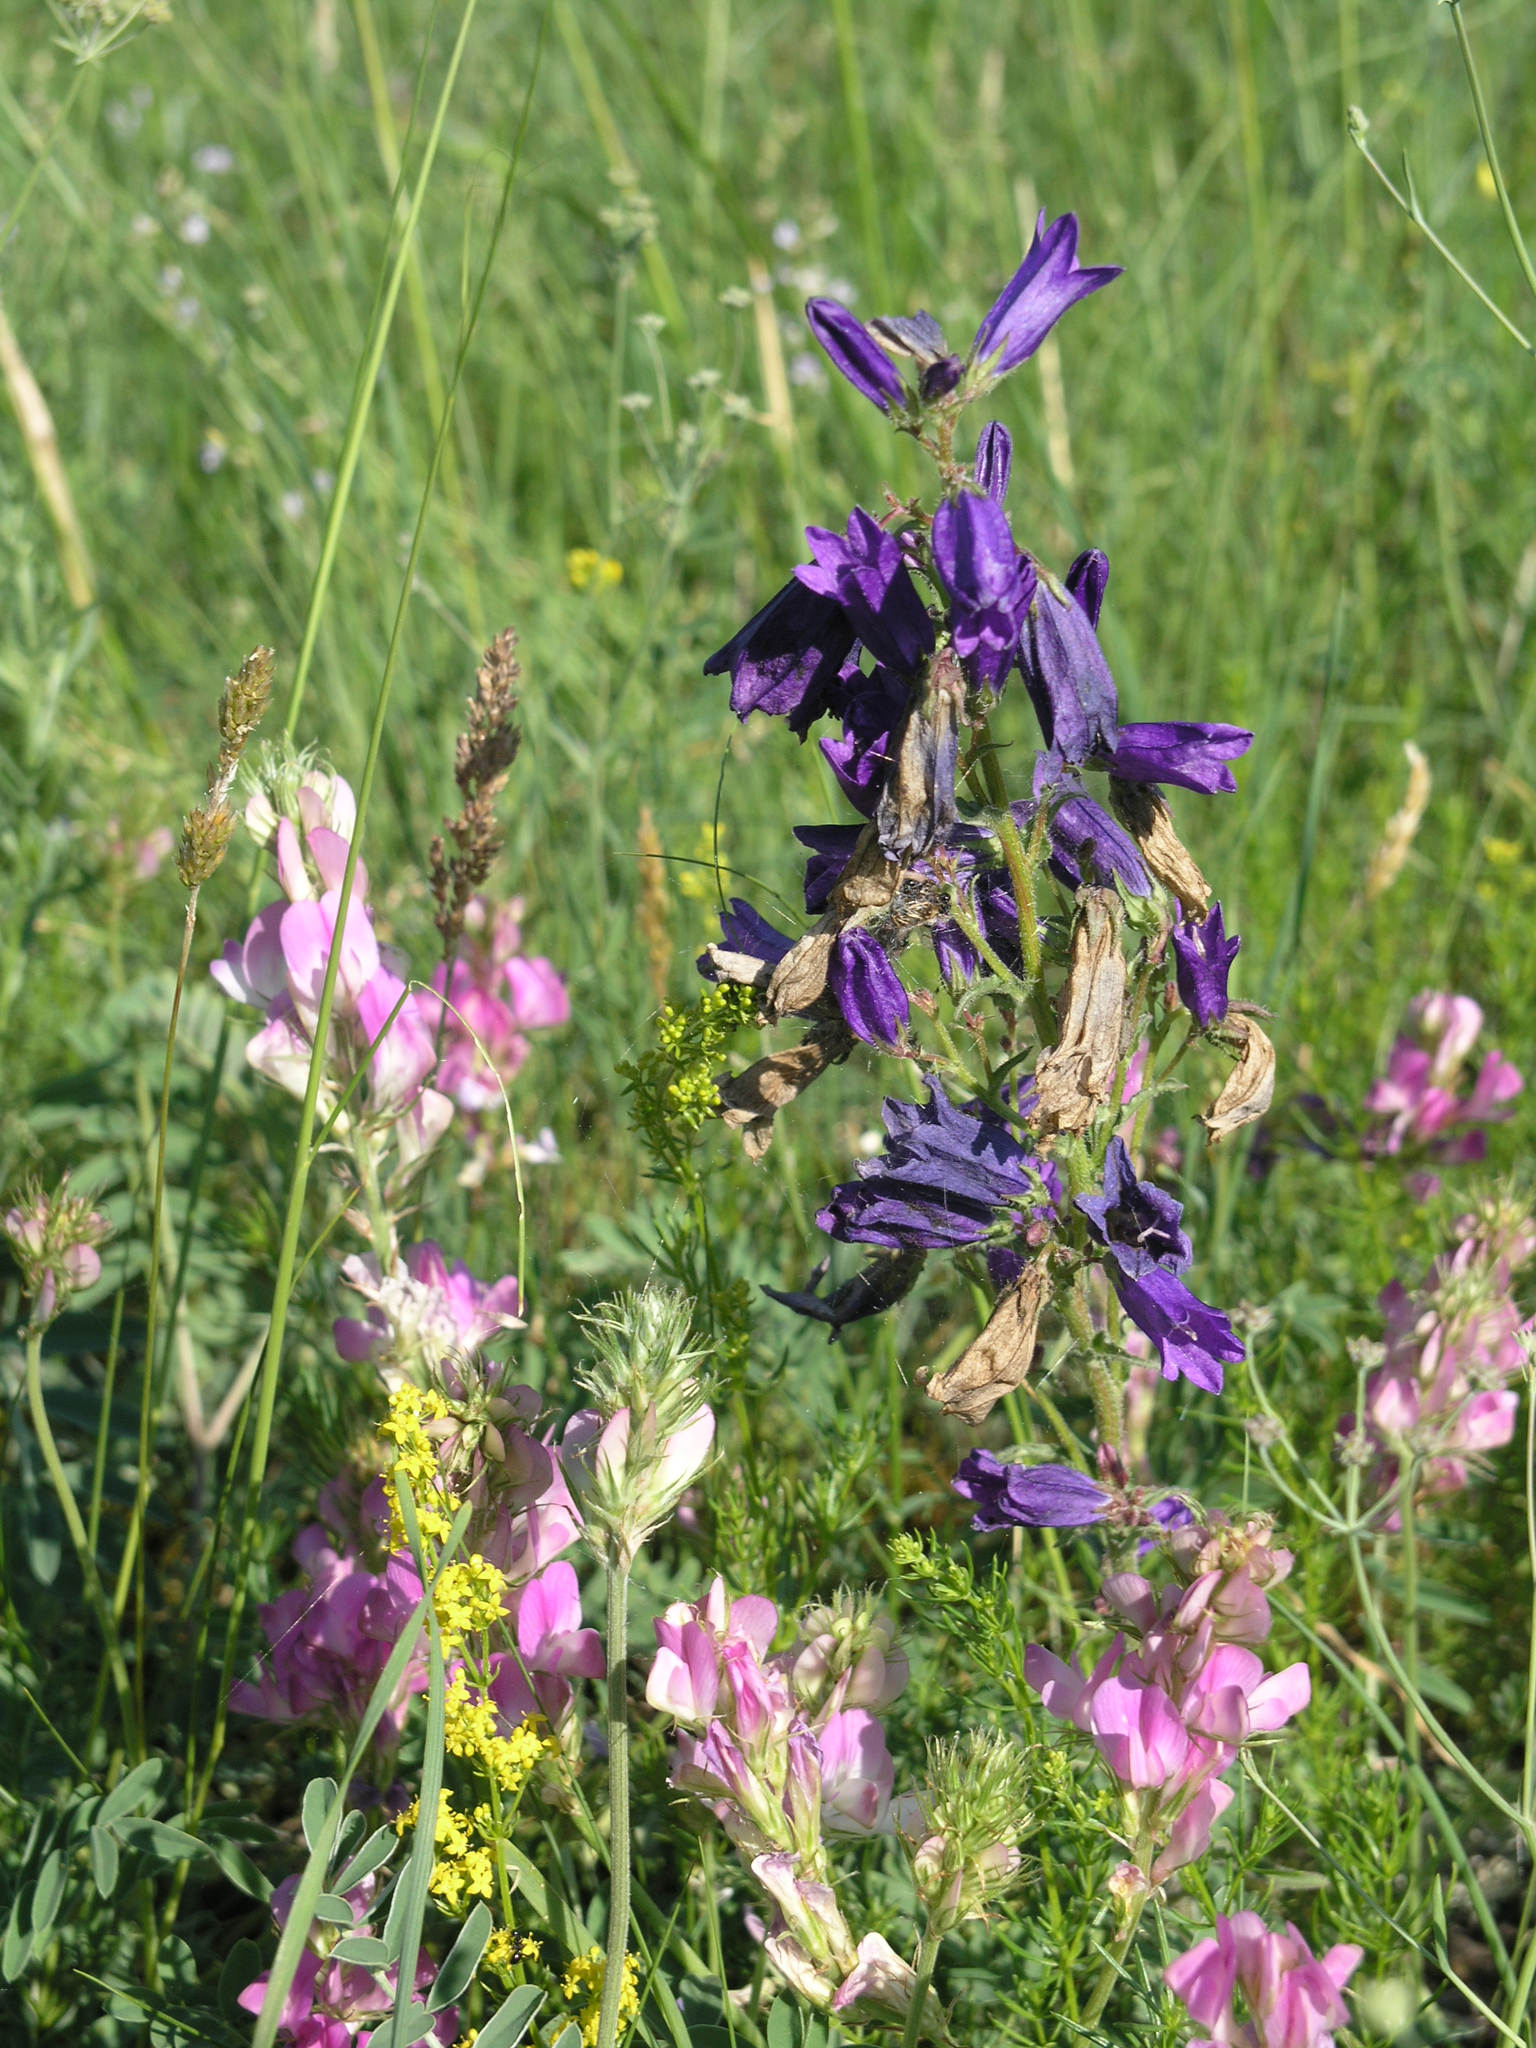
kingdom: Plantae
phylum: Tracheophyta
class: Magnoliopsida
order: Fabales
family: Fabaceae
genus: Hedysarum
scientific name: Hedysarum gmelinii
